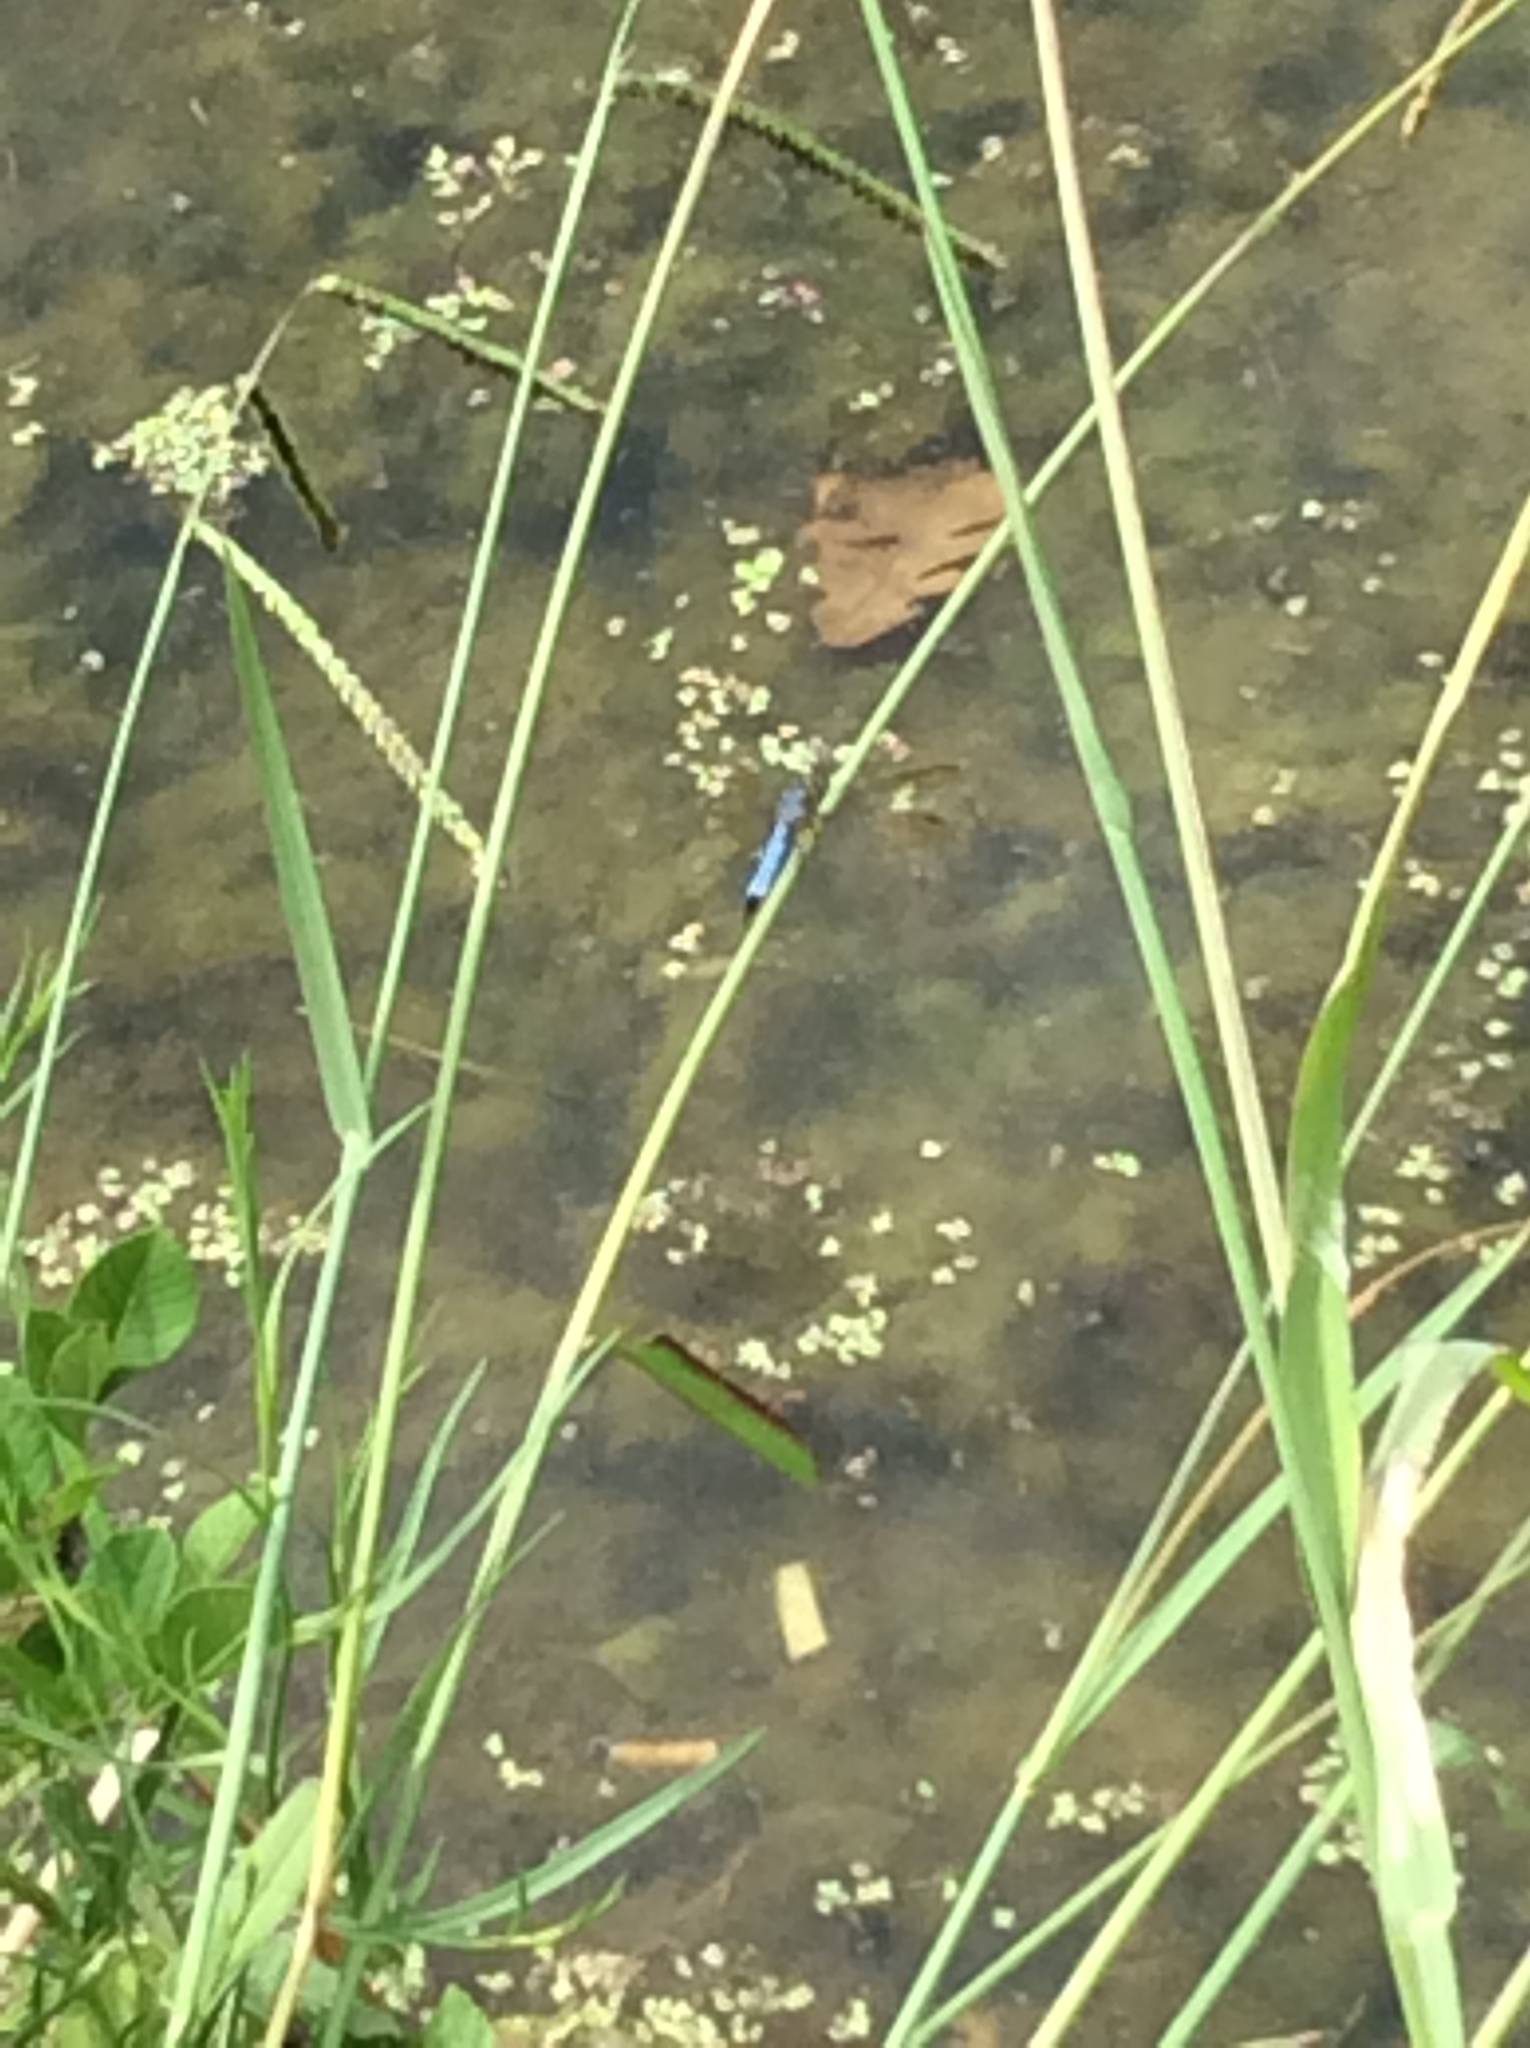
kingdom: Animalia
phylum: Arthropoda
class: Insecta
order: Odonata
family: Libellulidae
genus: Pachydiplax
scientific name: Pachydiplax longipennis
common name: Blue dasher
